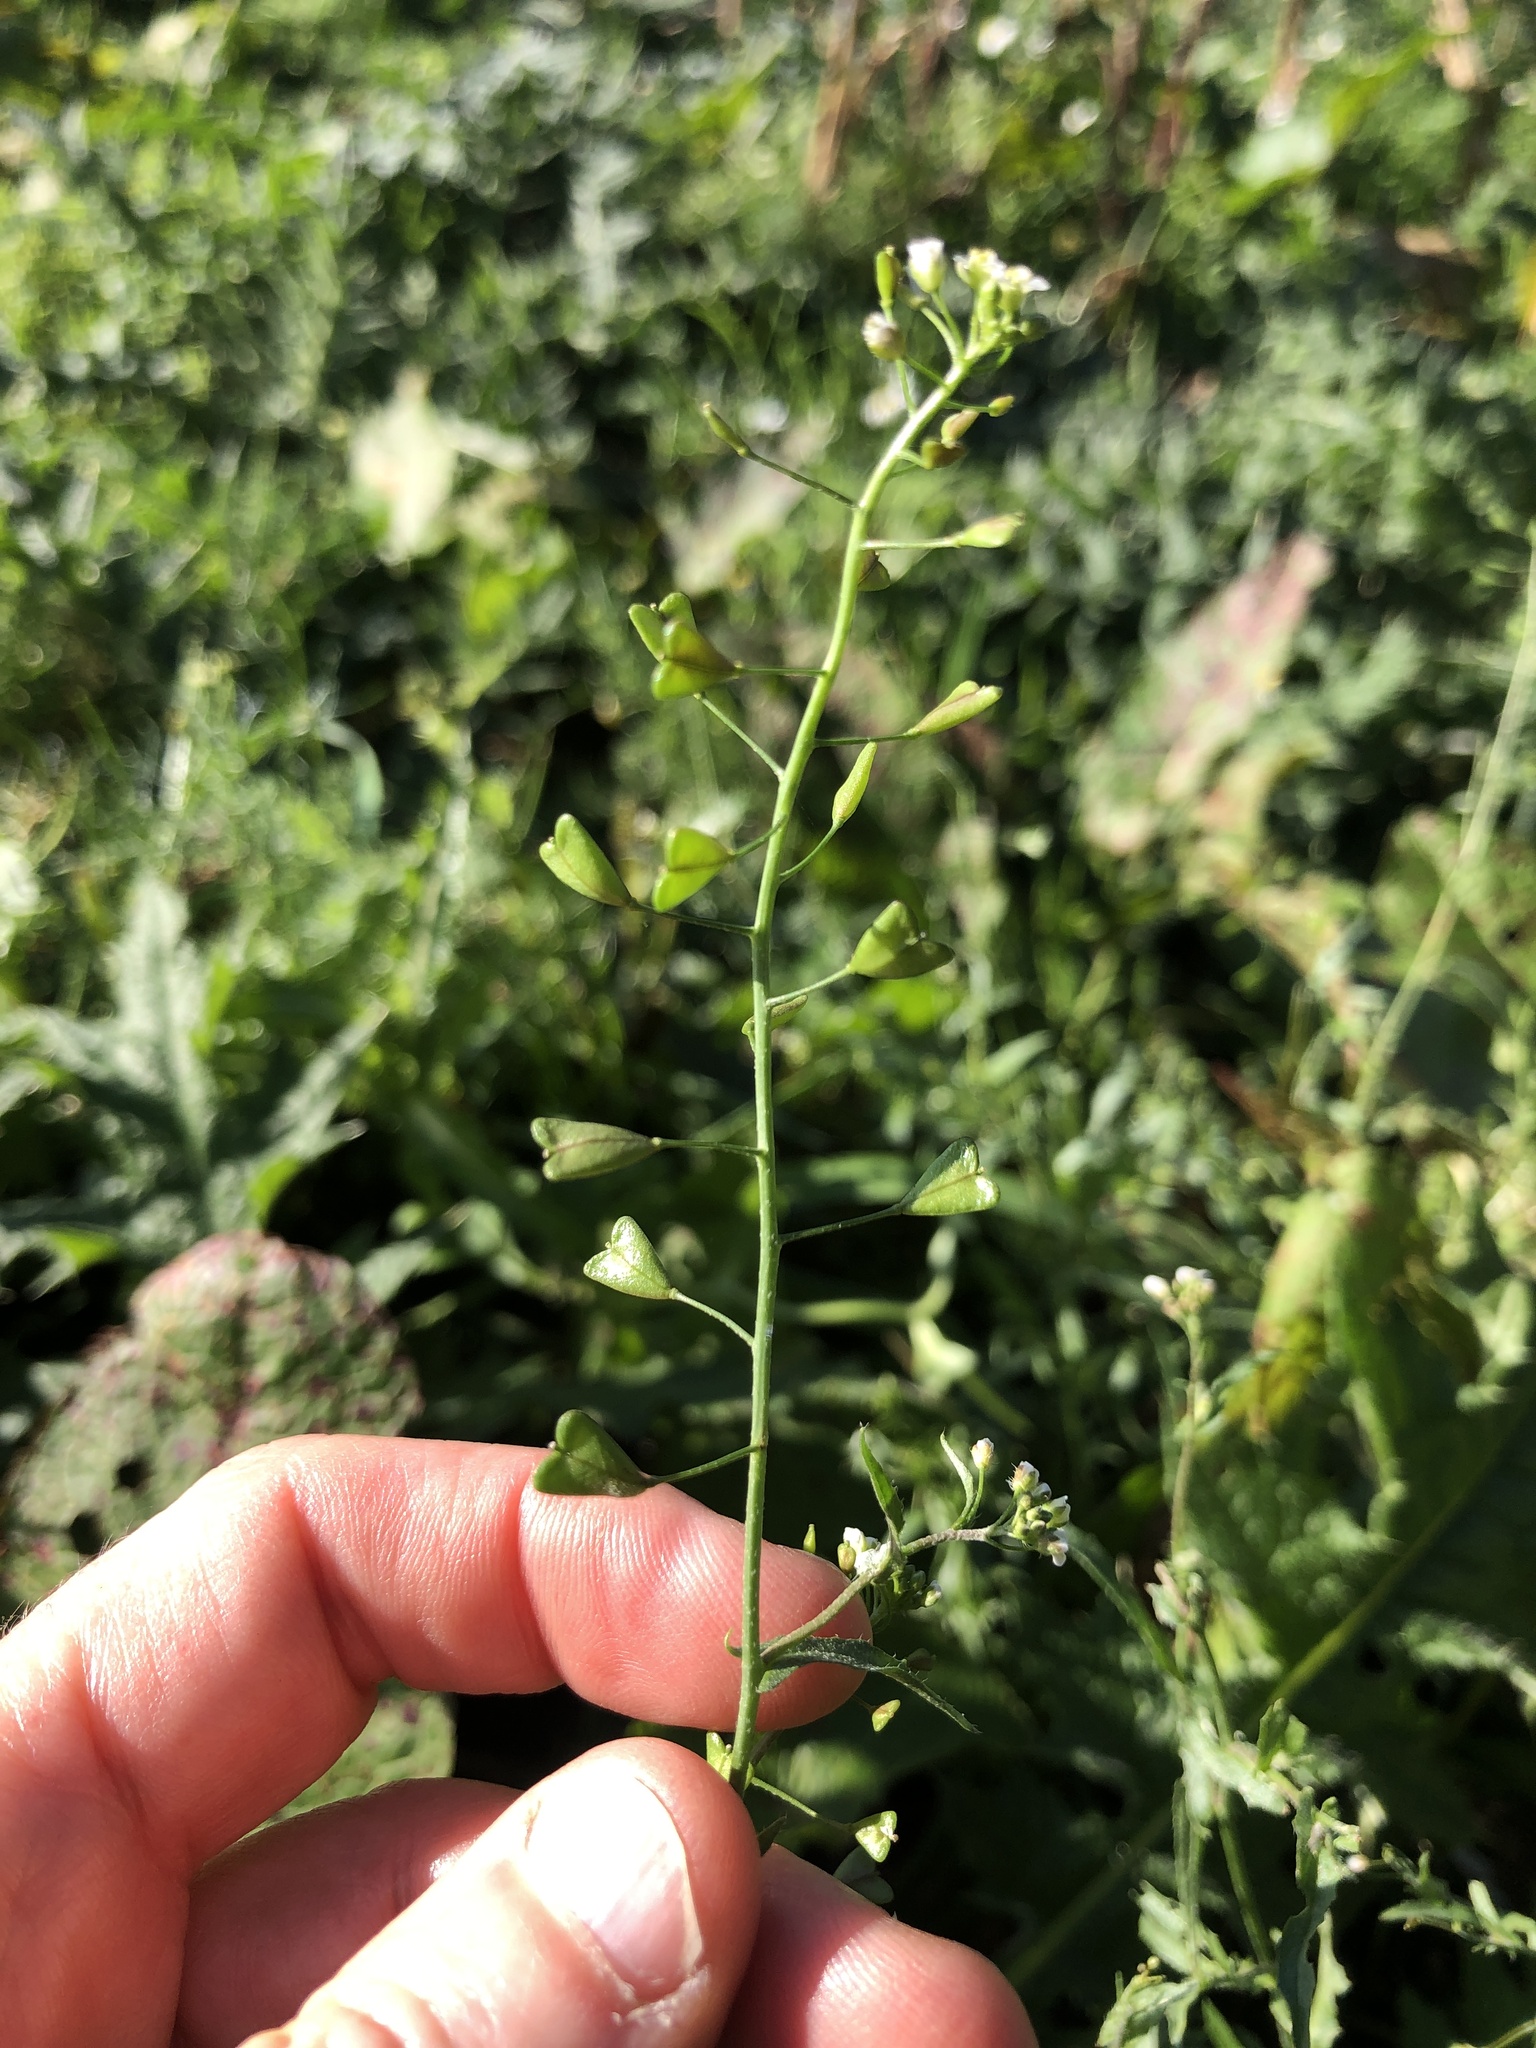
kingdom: Plantae
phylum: Tracheophyta
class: Magnoliopsida
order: Brassicales
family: Brassicaceae
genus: Capsella
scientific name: Capsella bursa-pastoris
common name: Shepherd's purse
